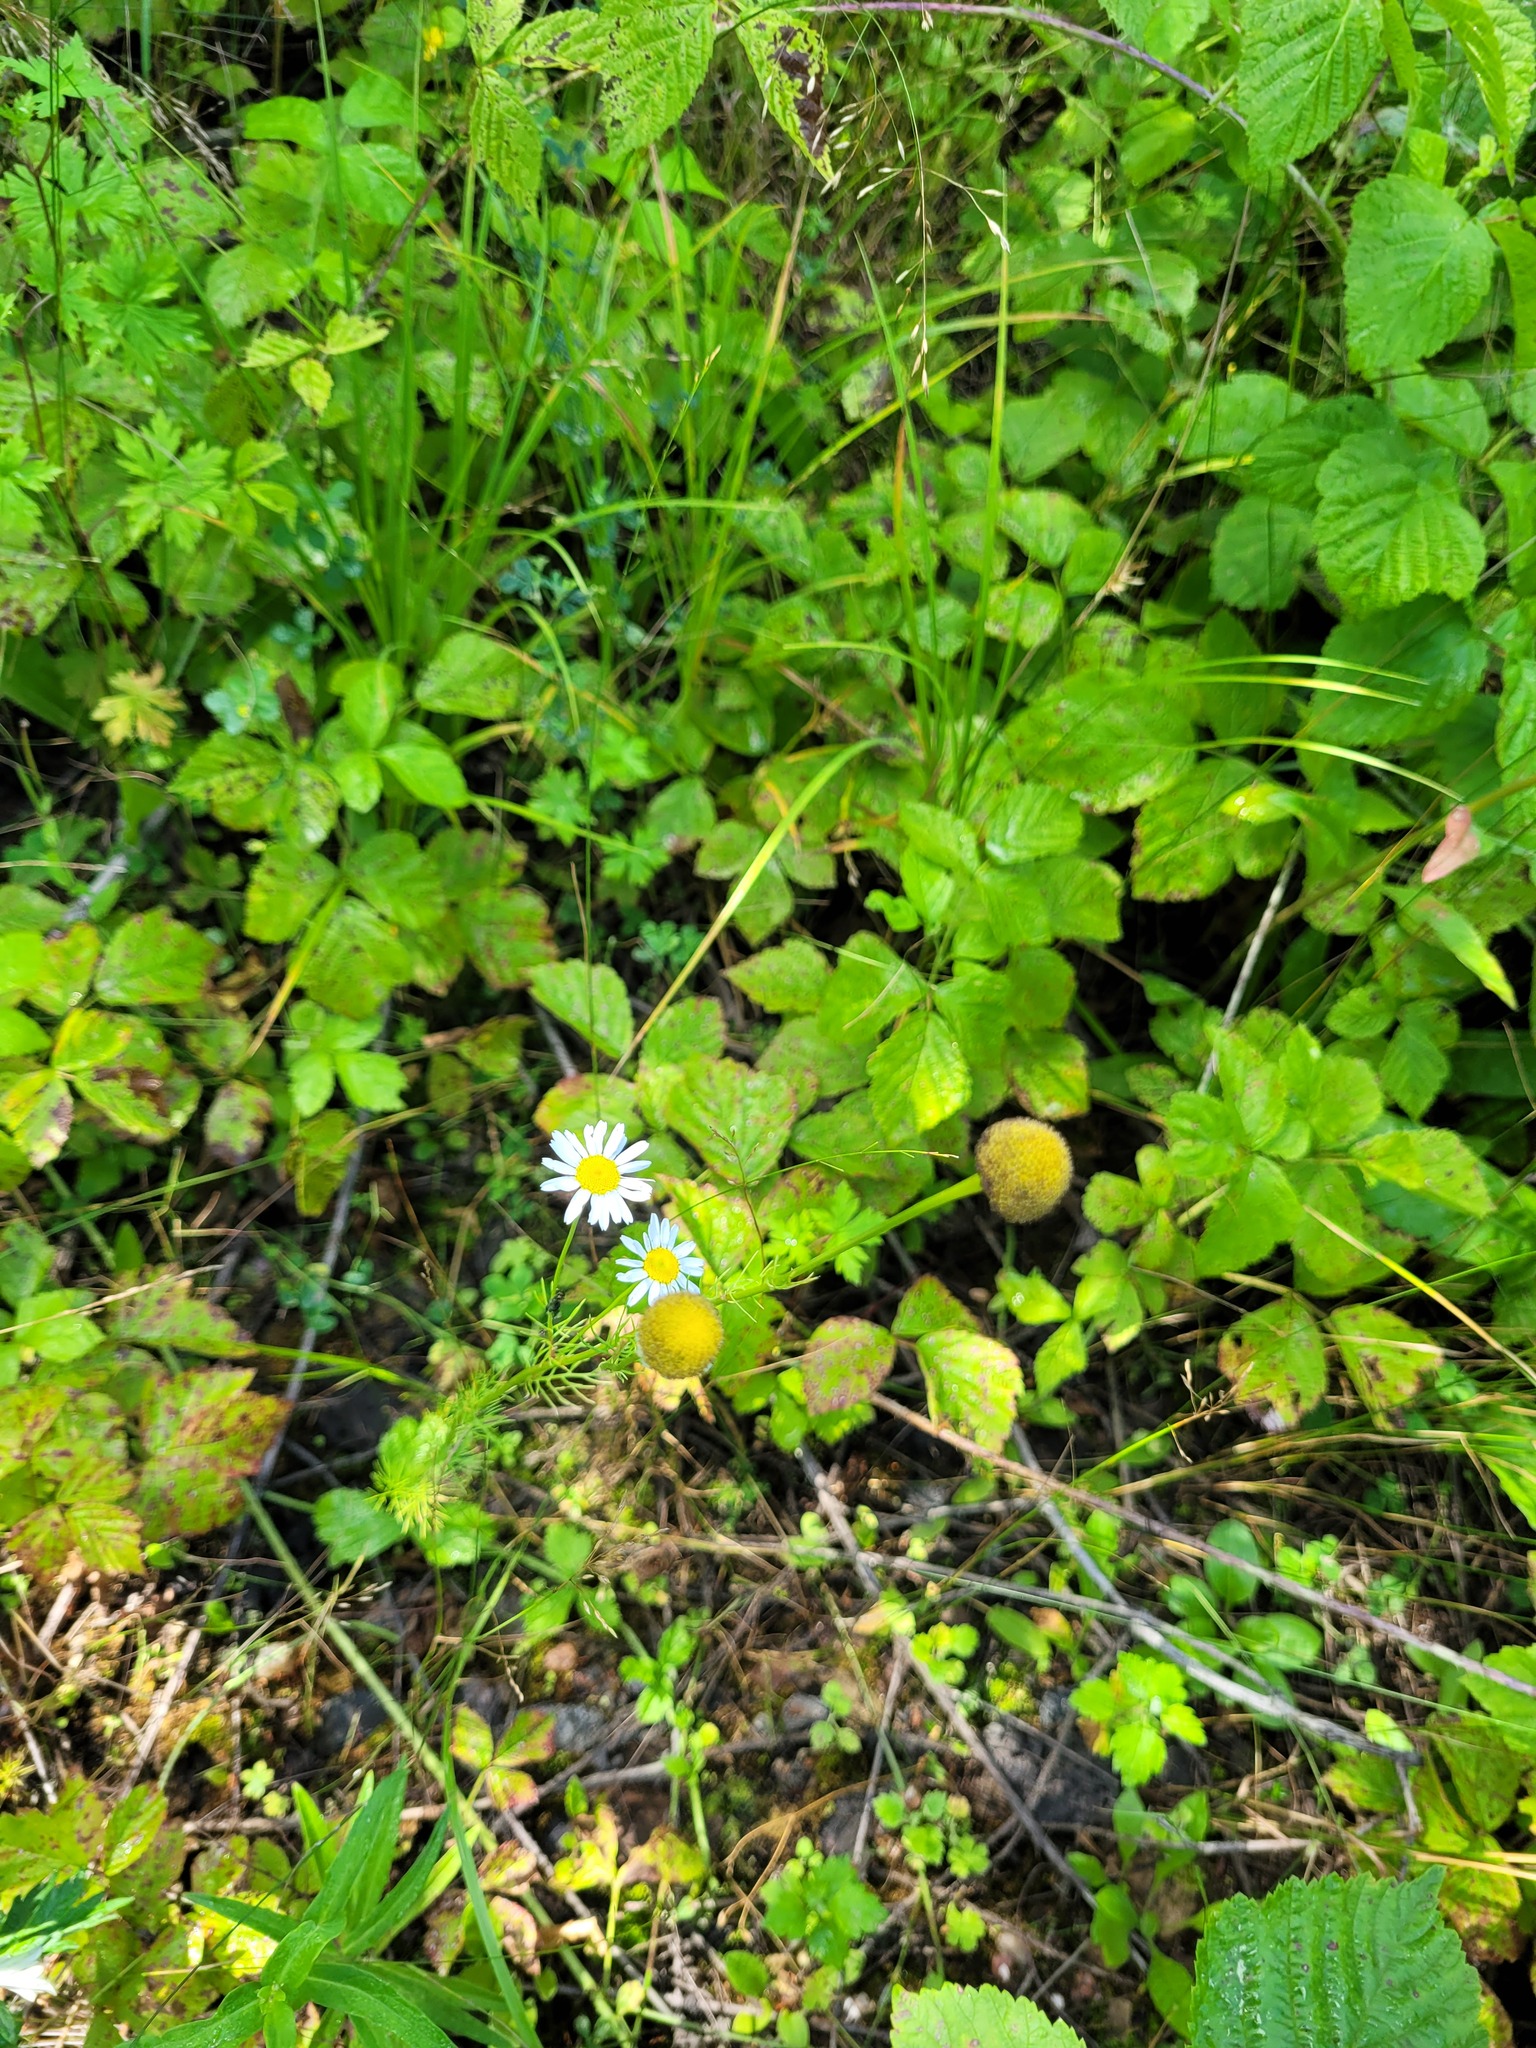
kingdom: Plantae
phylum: Tracheophyta
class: Magnoliopsida
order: Asterales
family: Asteraceae
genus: Tripleurospermum
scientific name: Tripleurospermum inodorum
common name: Scentless mayweed
